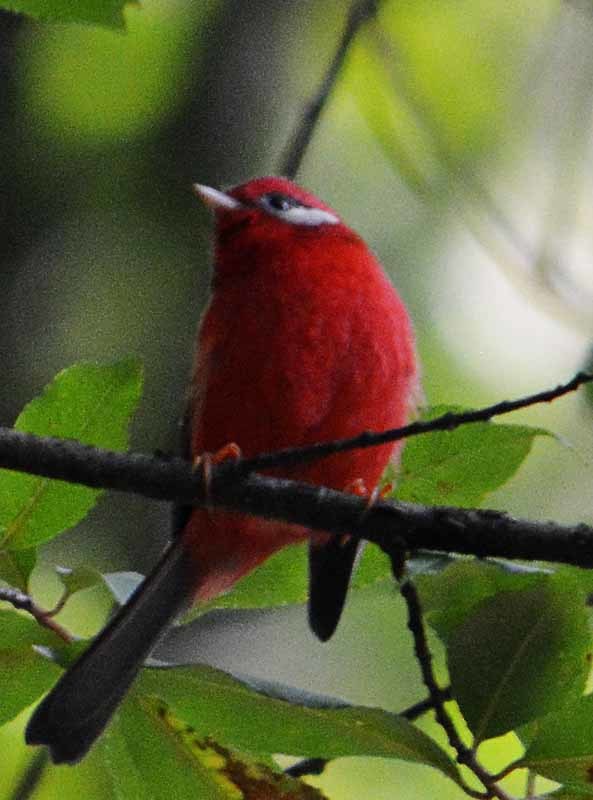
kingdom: Animalia
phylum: Chordata
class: Aves
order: Passeriformes
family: Parulidae
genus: Cardellina
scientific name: Cardellina rubra
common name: Red warbler
